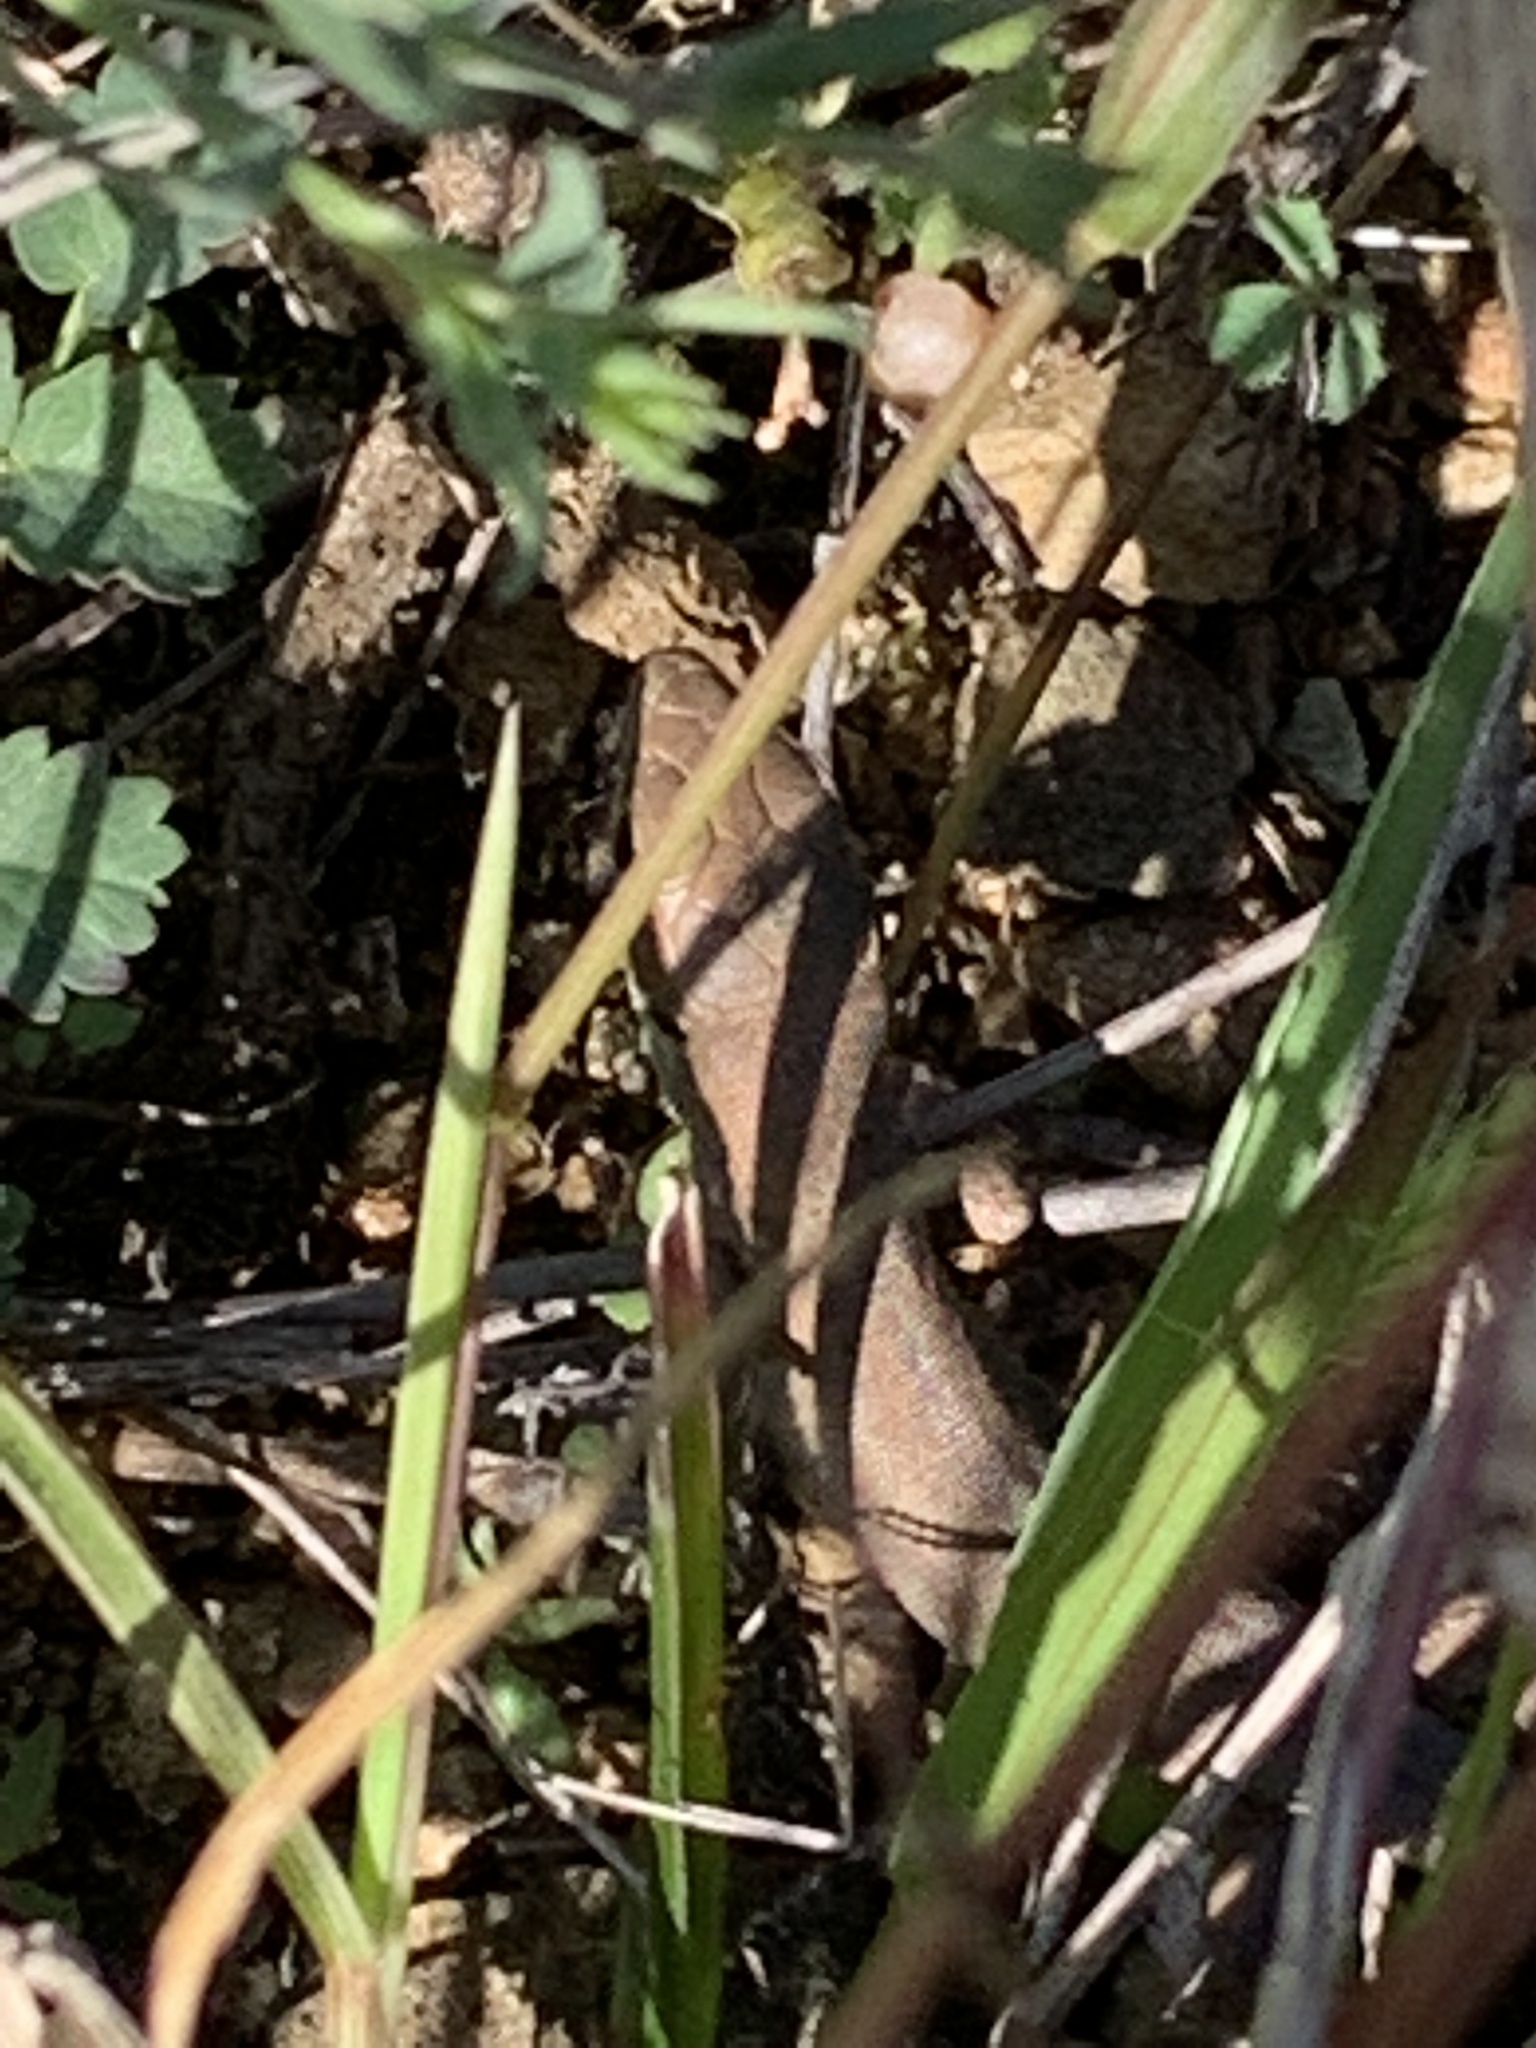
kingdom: Animalia
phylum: Chordata
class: Squamata
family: Lacertidae
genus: Lacerta
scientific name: Lacerta viridis
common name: European green lizard
